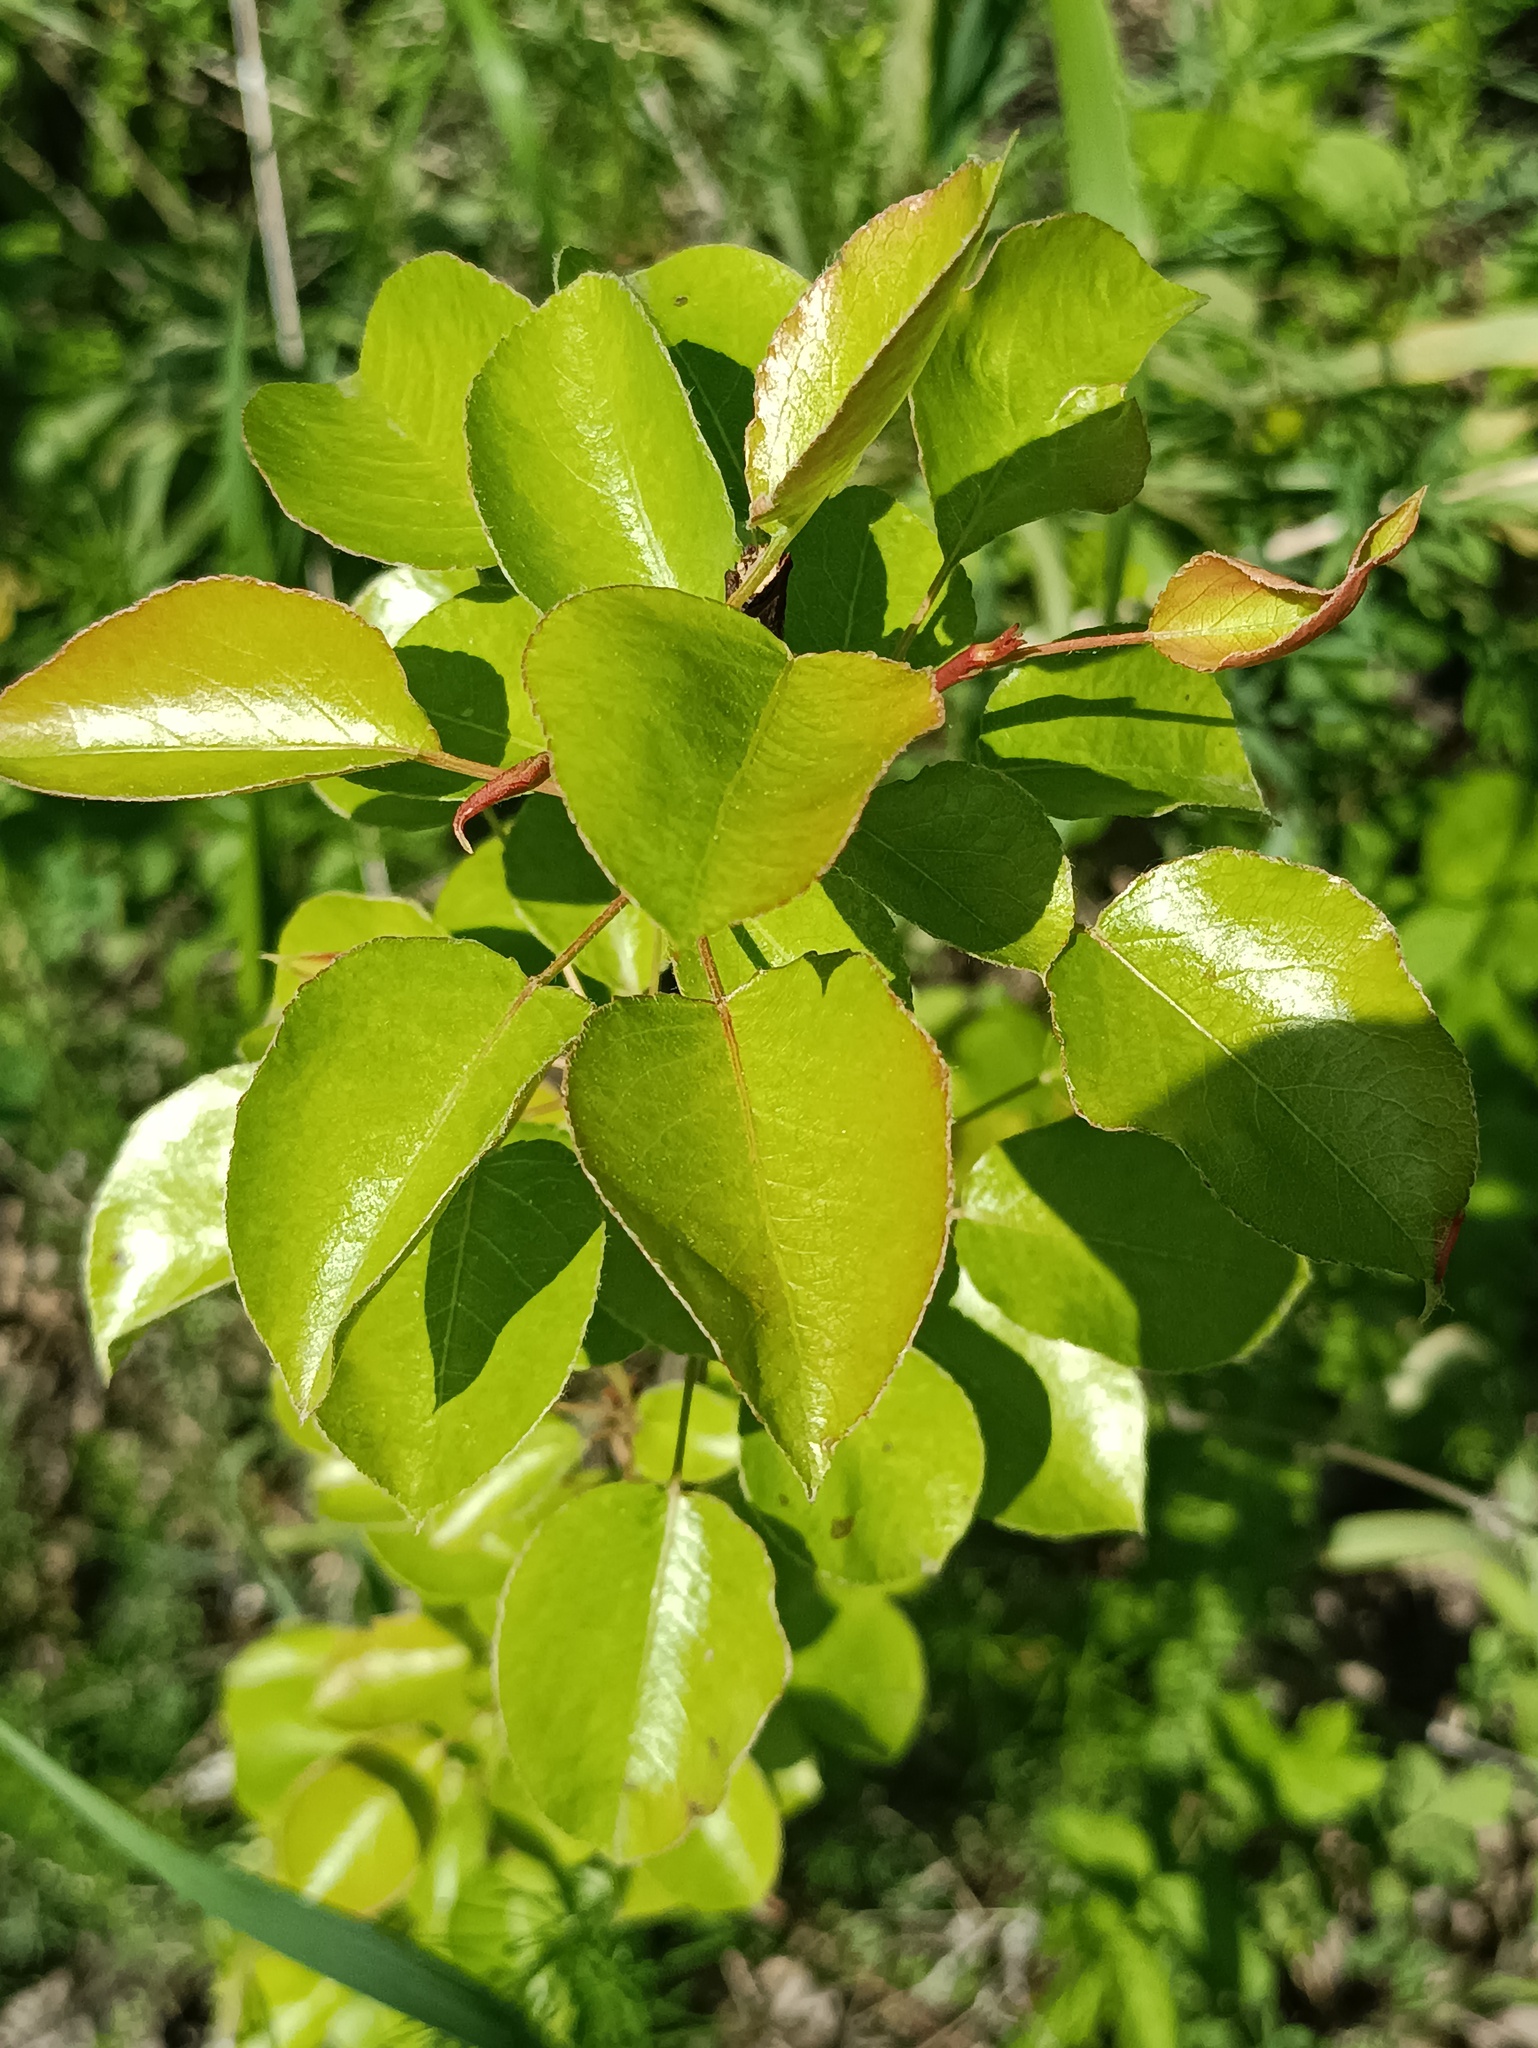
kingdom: Plantae
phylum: Tracheophyta
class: Magnoliopsida
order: Rosales
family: Rosaceae
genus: Pyrus
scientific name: Pyrus communis
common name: Pear
